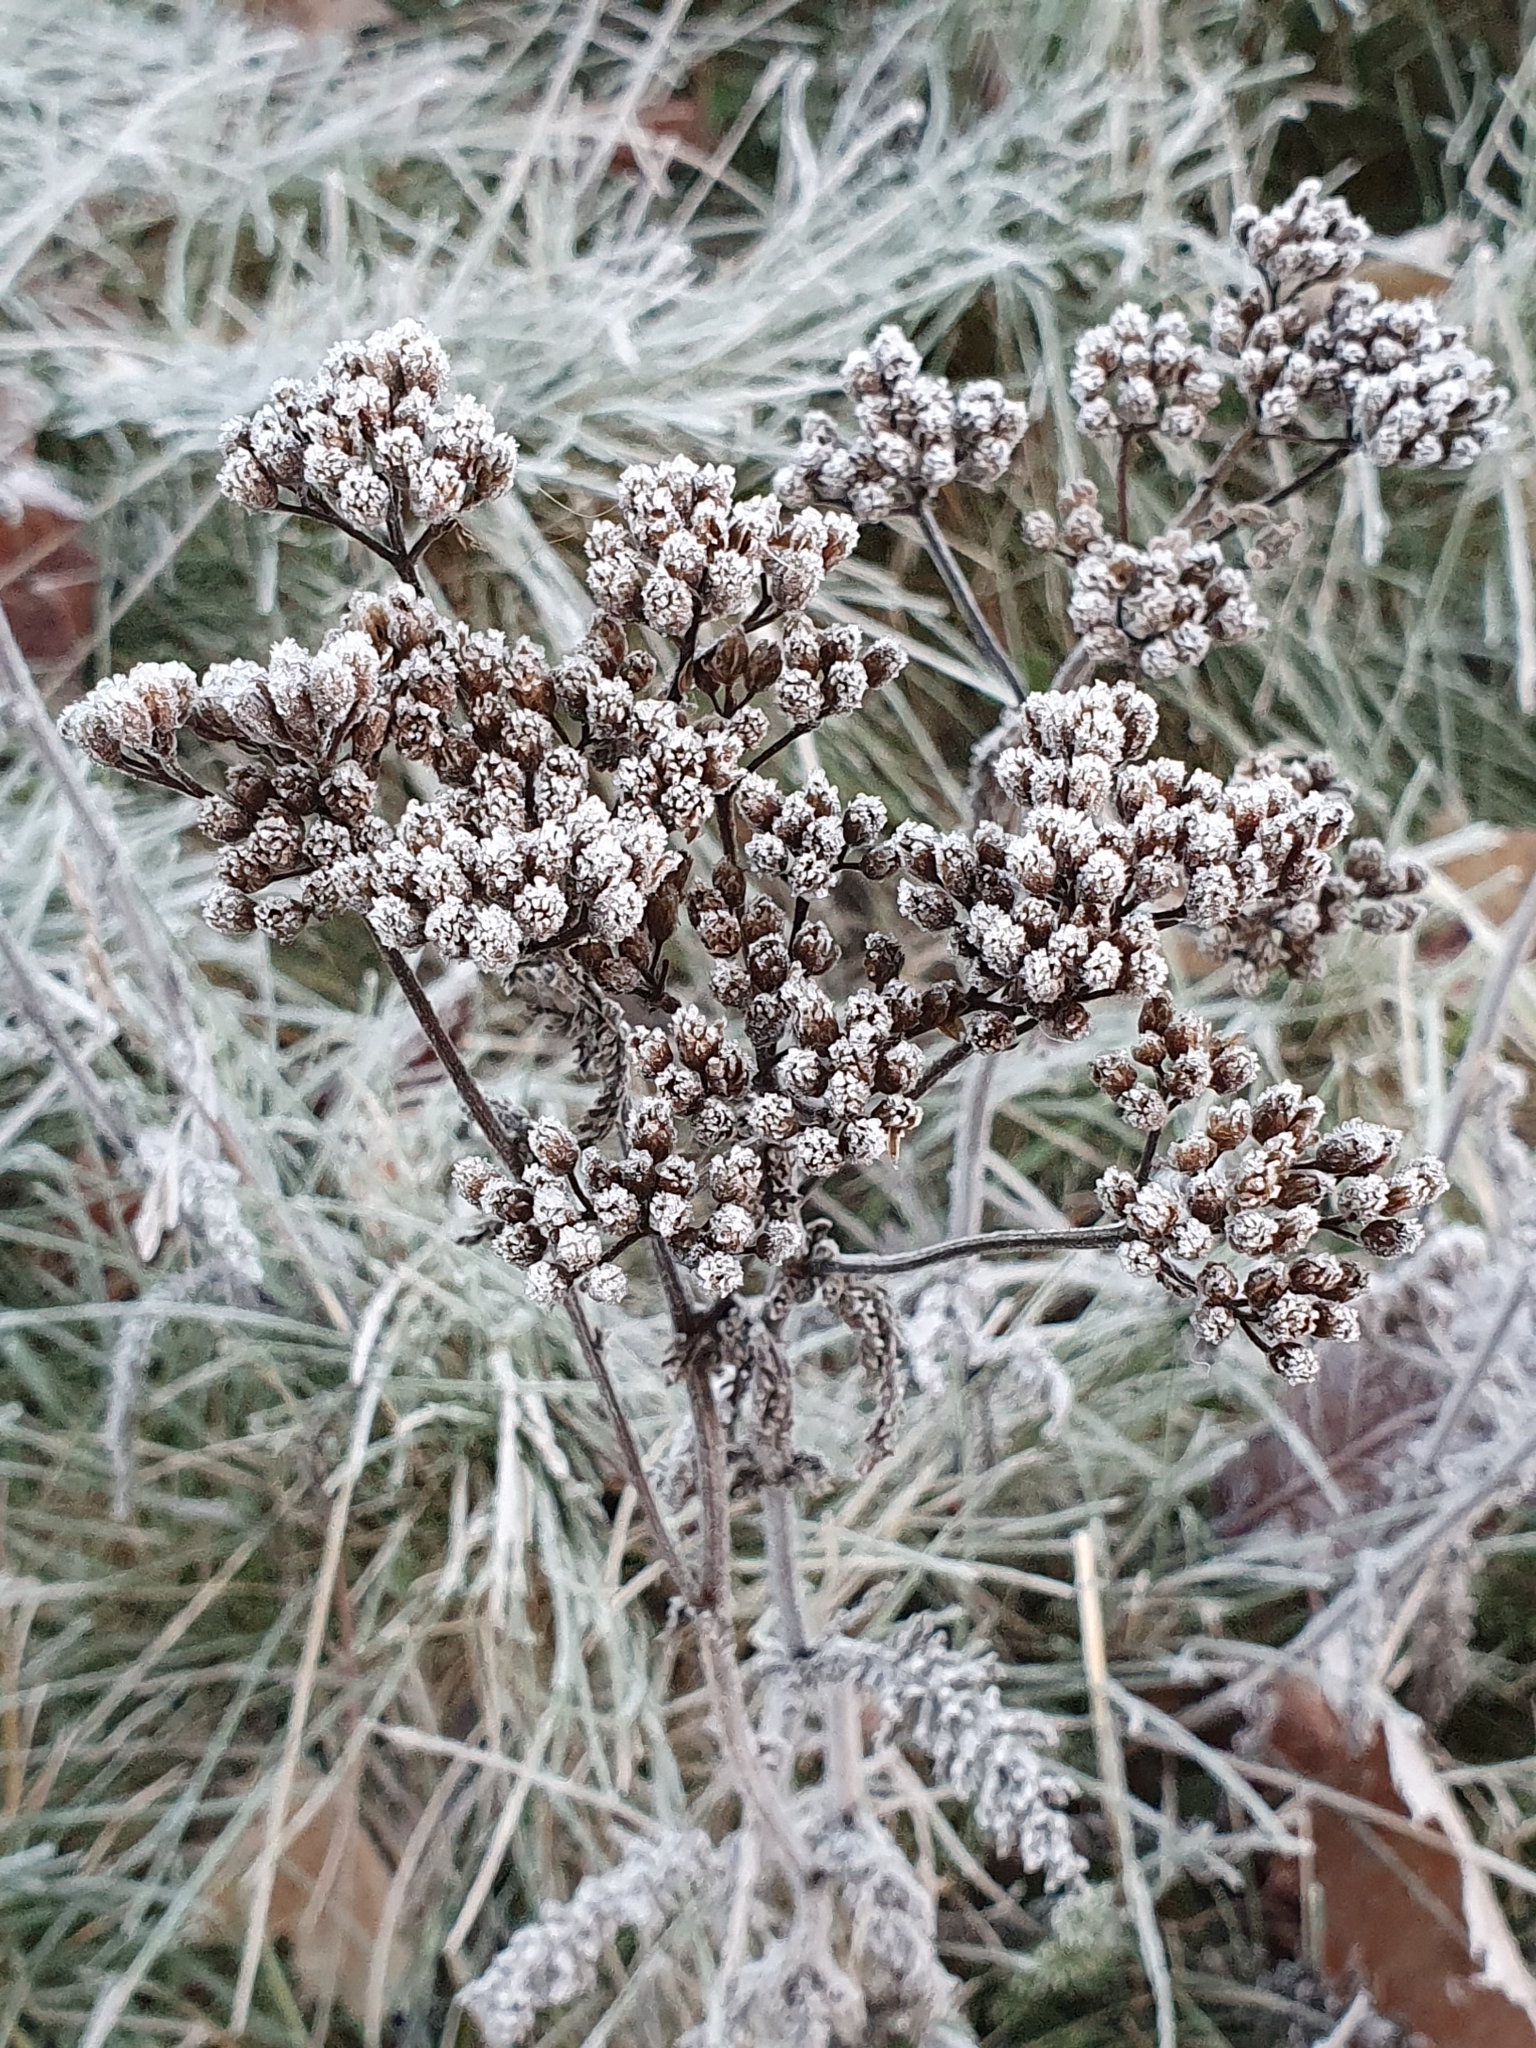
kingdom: Plantae
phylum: Tracheophyta
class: Magnoliopsida
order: Asterales
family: Asteraceae
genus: Achillea
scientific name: Achillea millefolium
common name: Yarrow
